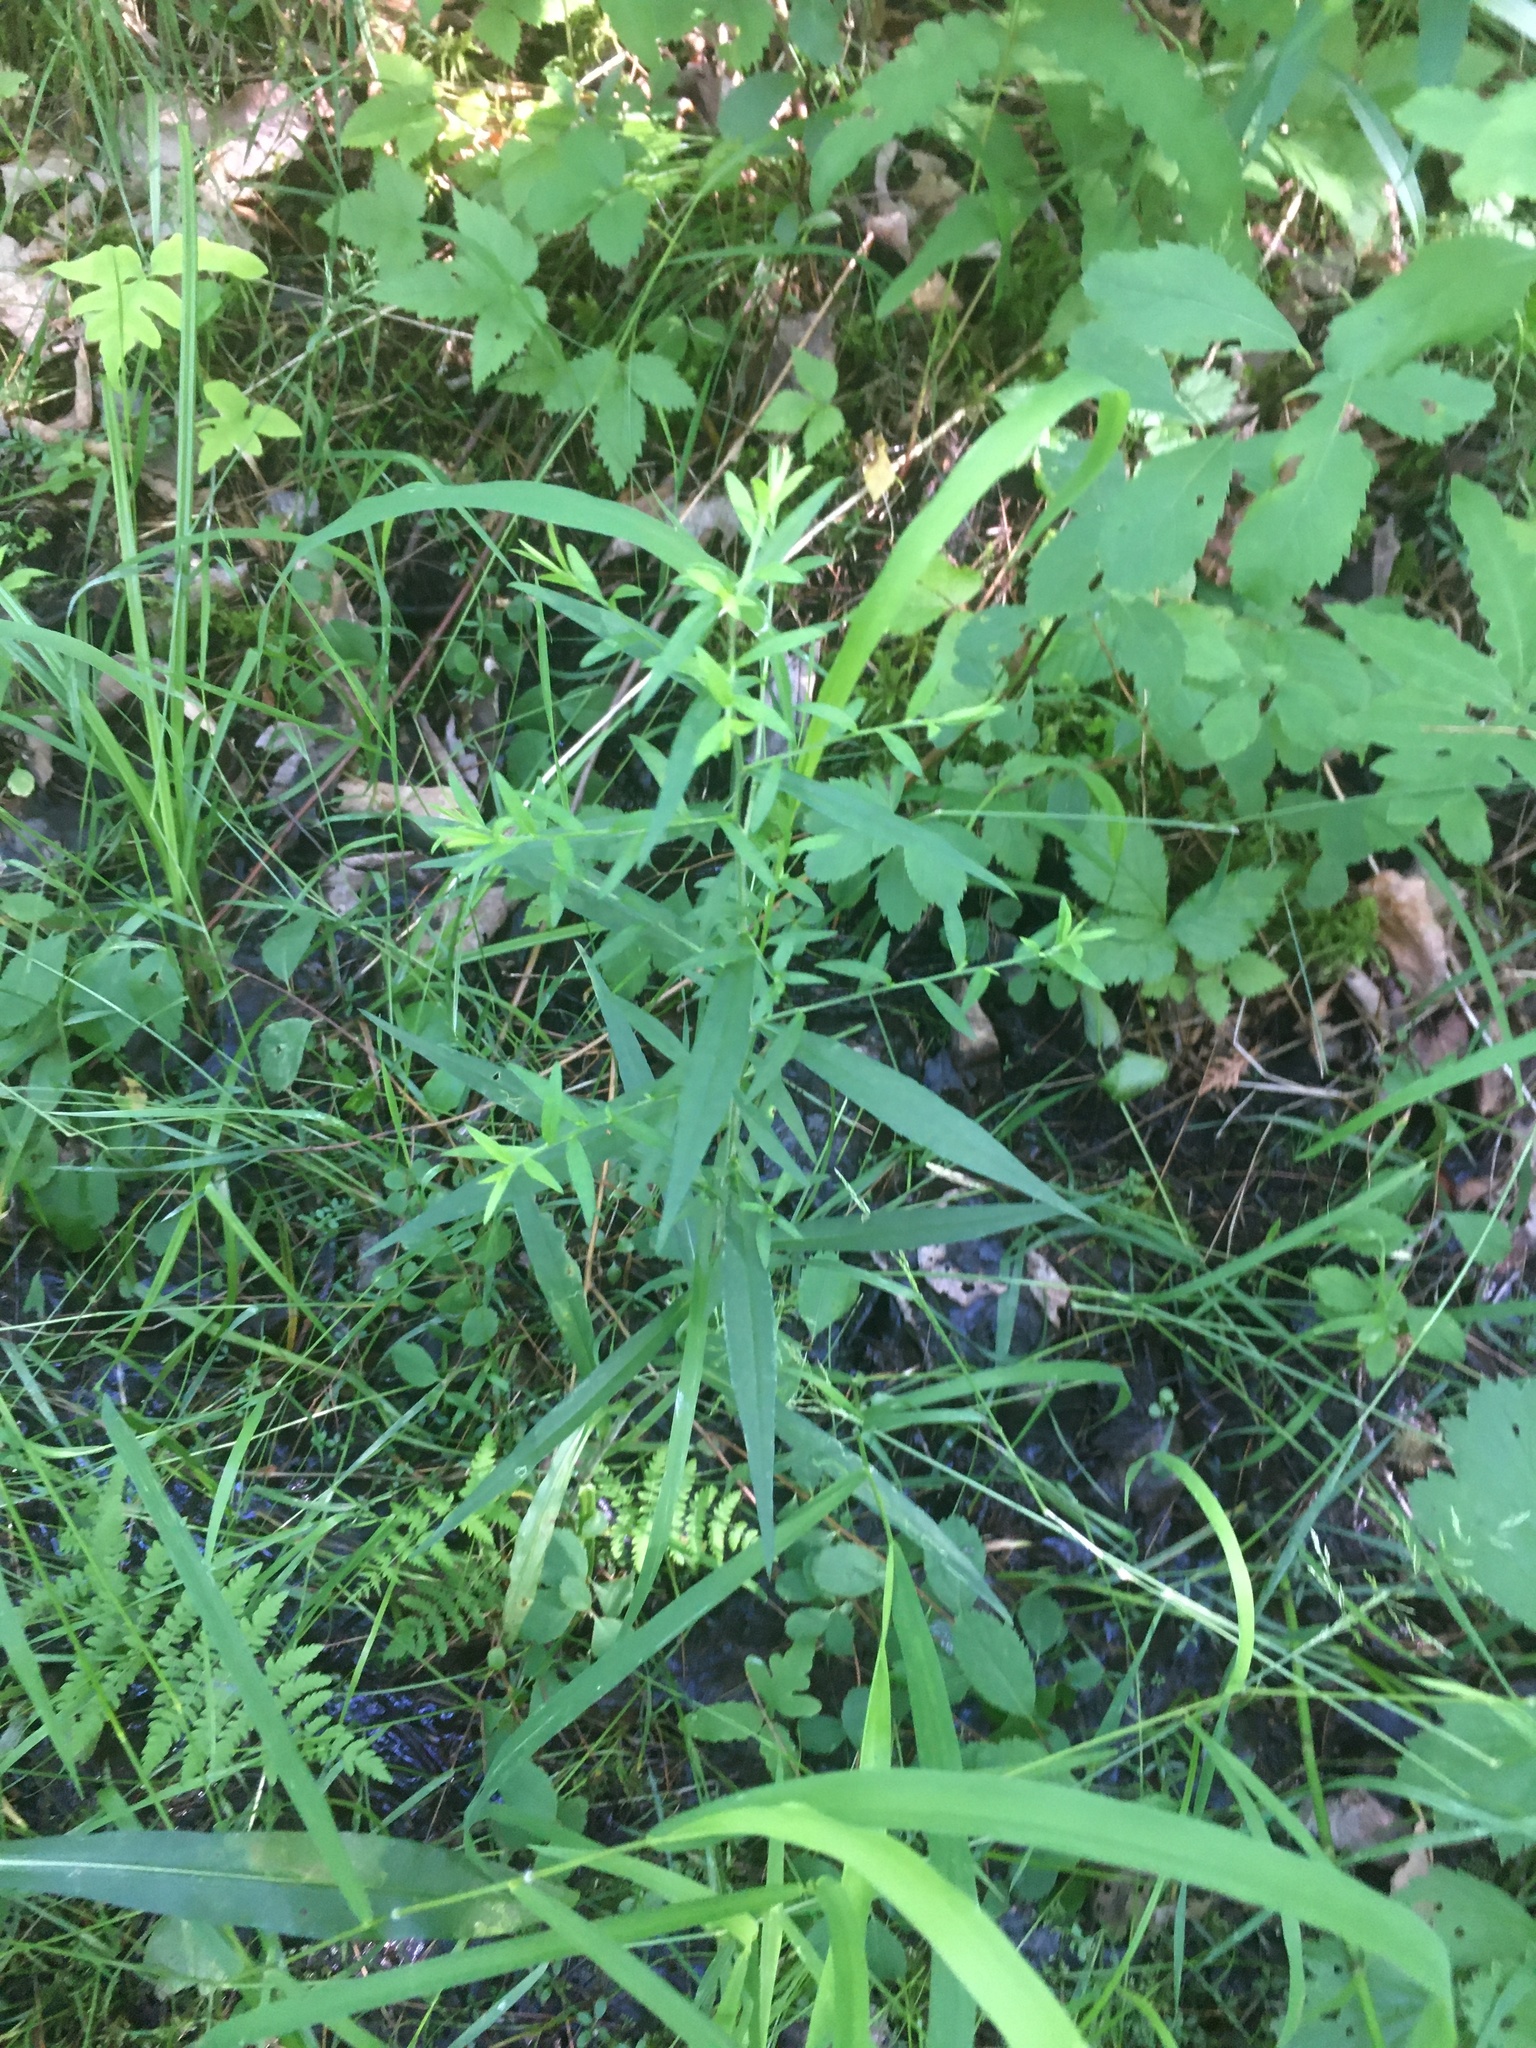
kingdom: Plantae
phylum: Tracheophyta
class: Magnoliopsida
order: Asterales
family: Asteraceae
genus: Symphyotrichum
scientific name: Symphyotrichum lateriflorum
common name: Calico aster
